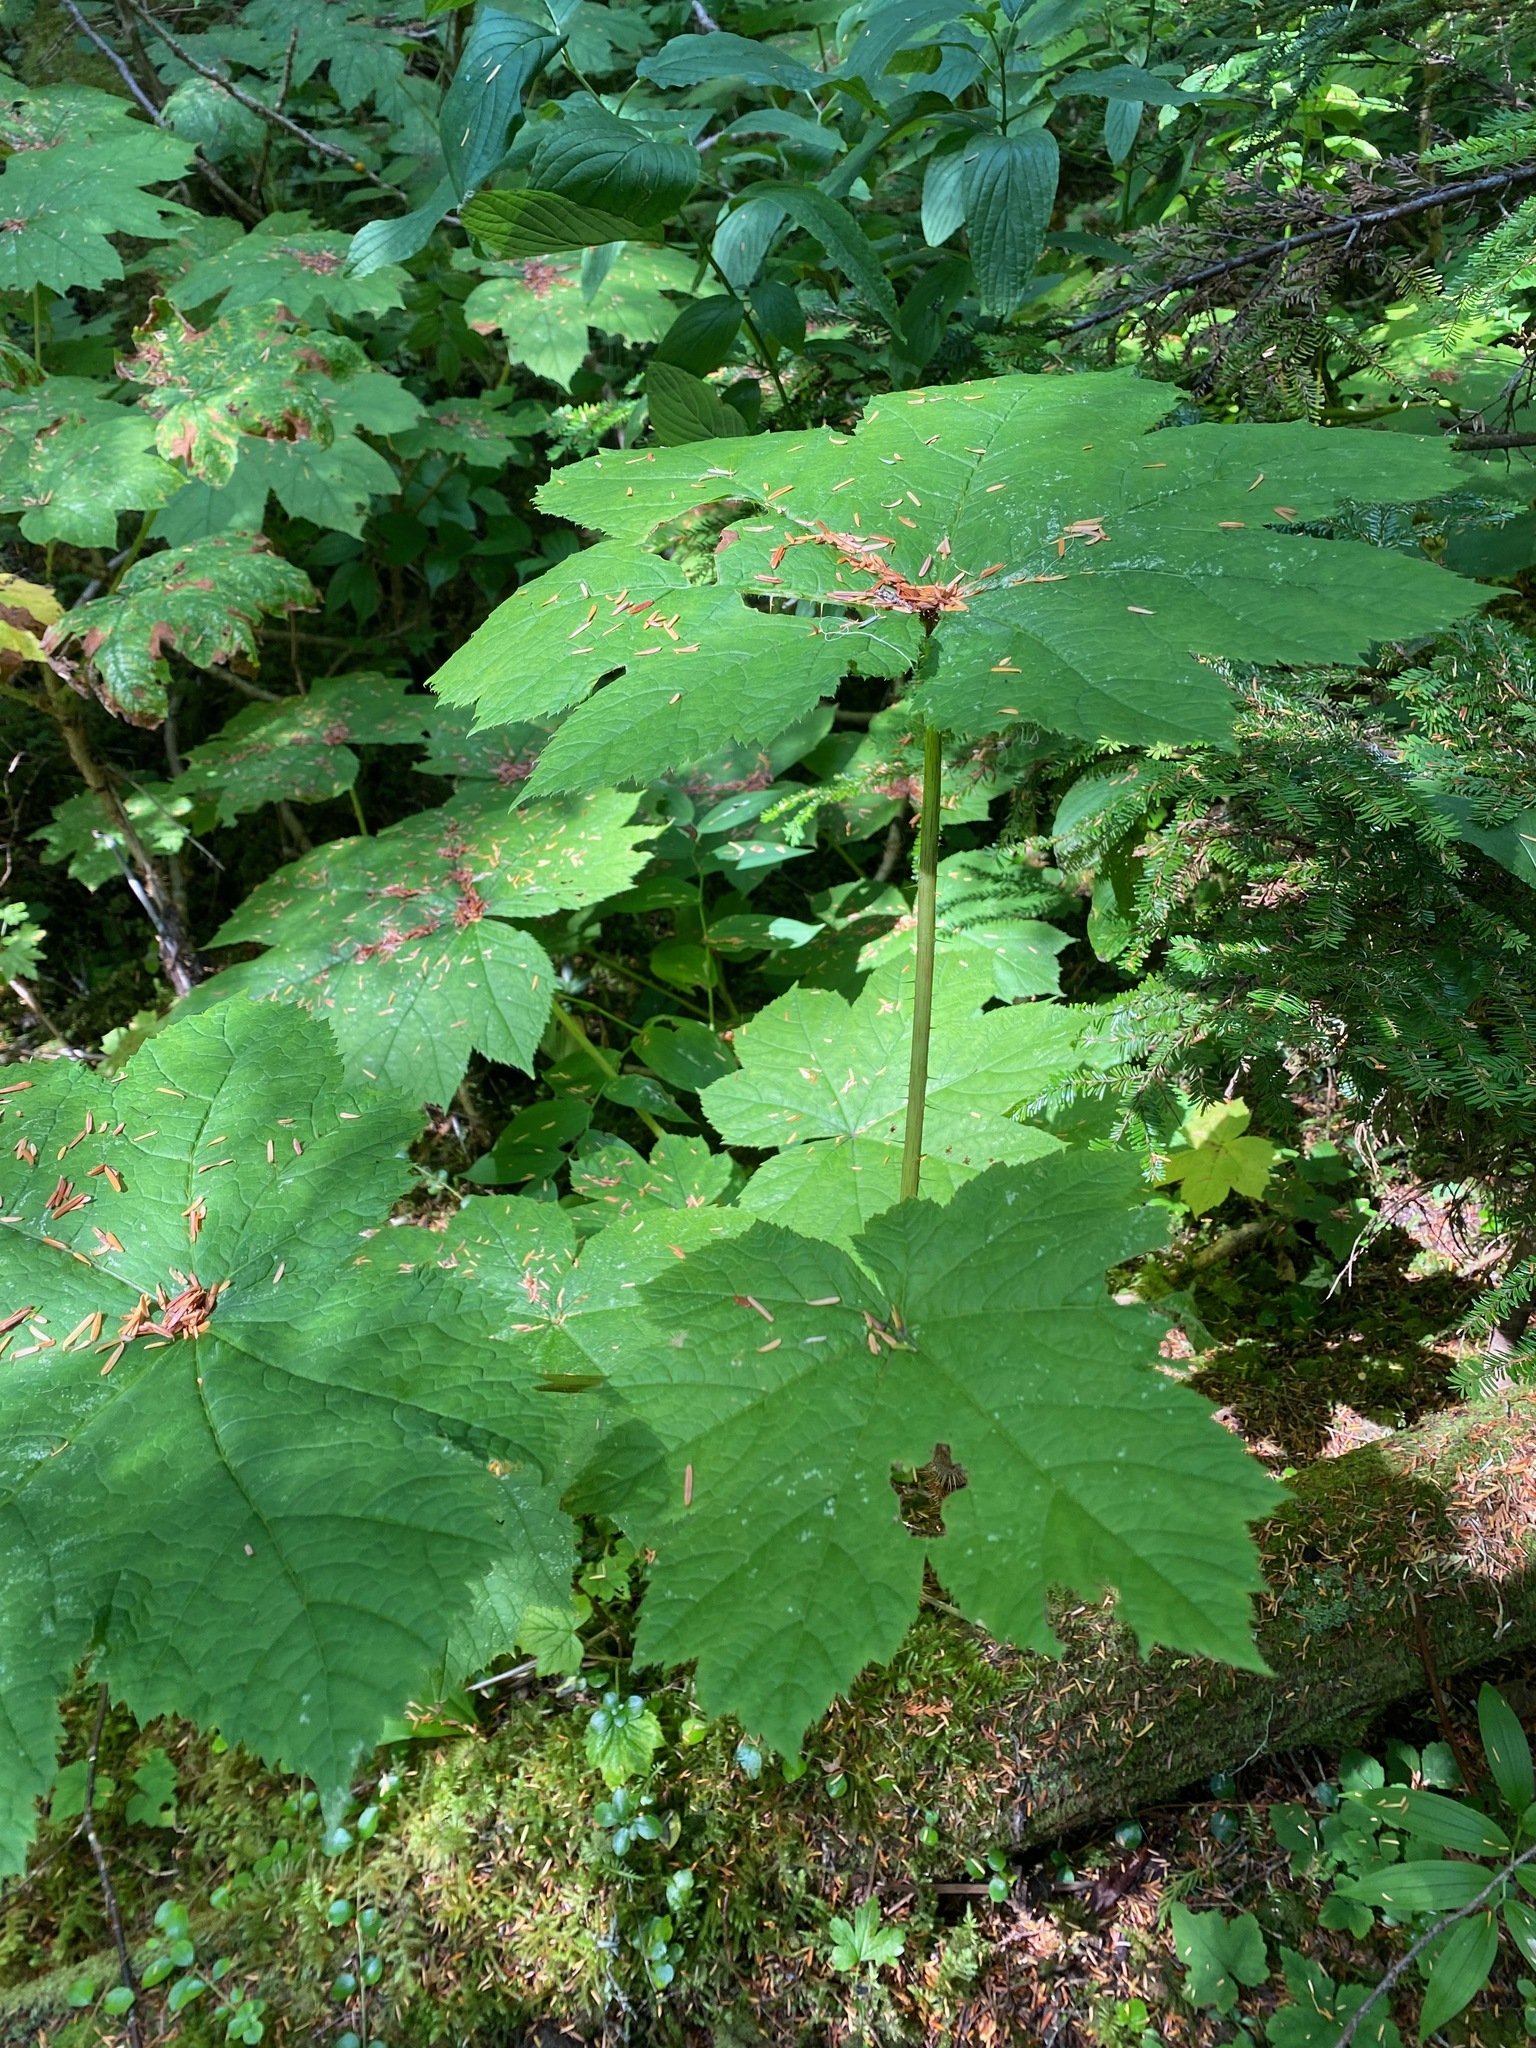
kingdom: Plantae
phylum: Tracheophyta
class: Magnoliopsida
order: Apiales
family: Araliaceae
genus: Oplopanax
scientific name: Oplopanax horridus
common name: Devil's walking-stick
